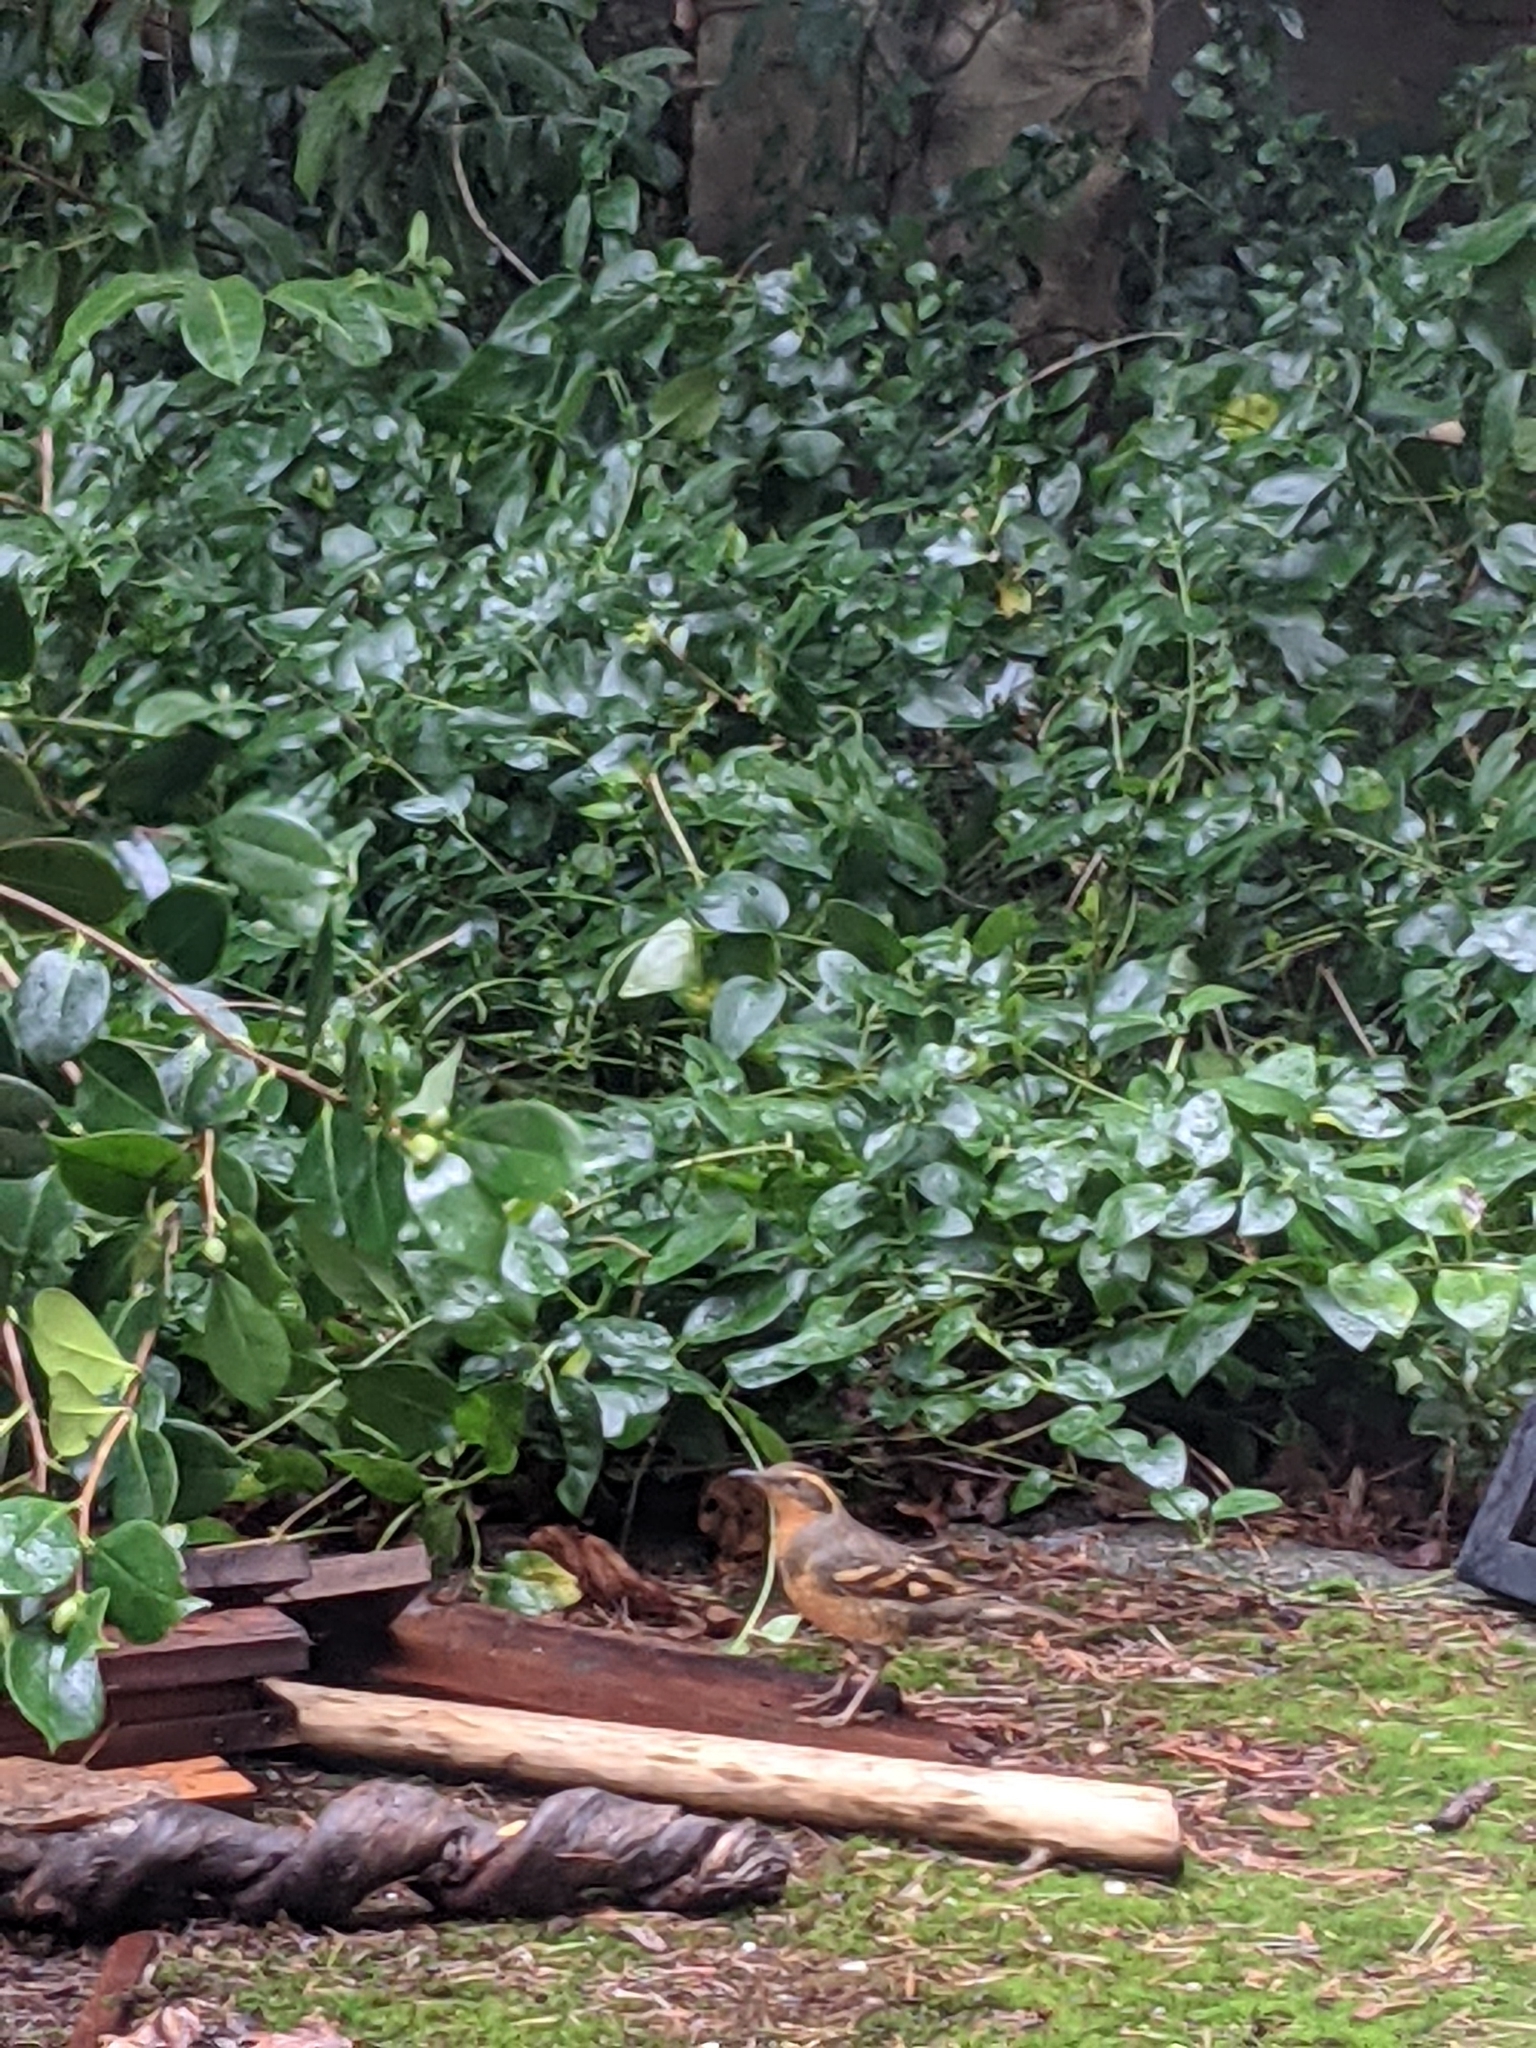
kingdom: Animalia
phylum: Chordata
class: Aves
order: Passeriformes
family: Turdidae
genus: Ixoreus
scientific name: Ixoreus naevius
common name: Varied thrush
